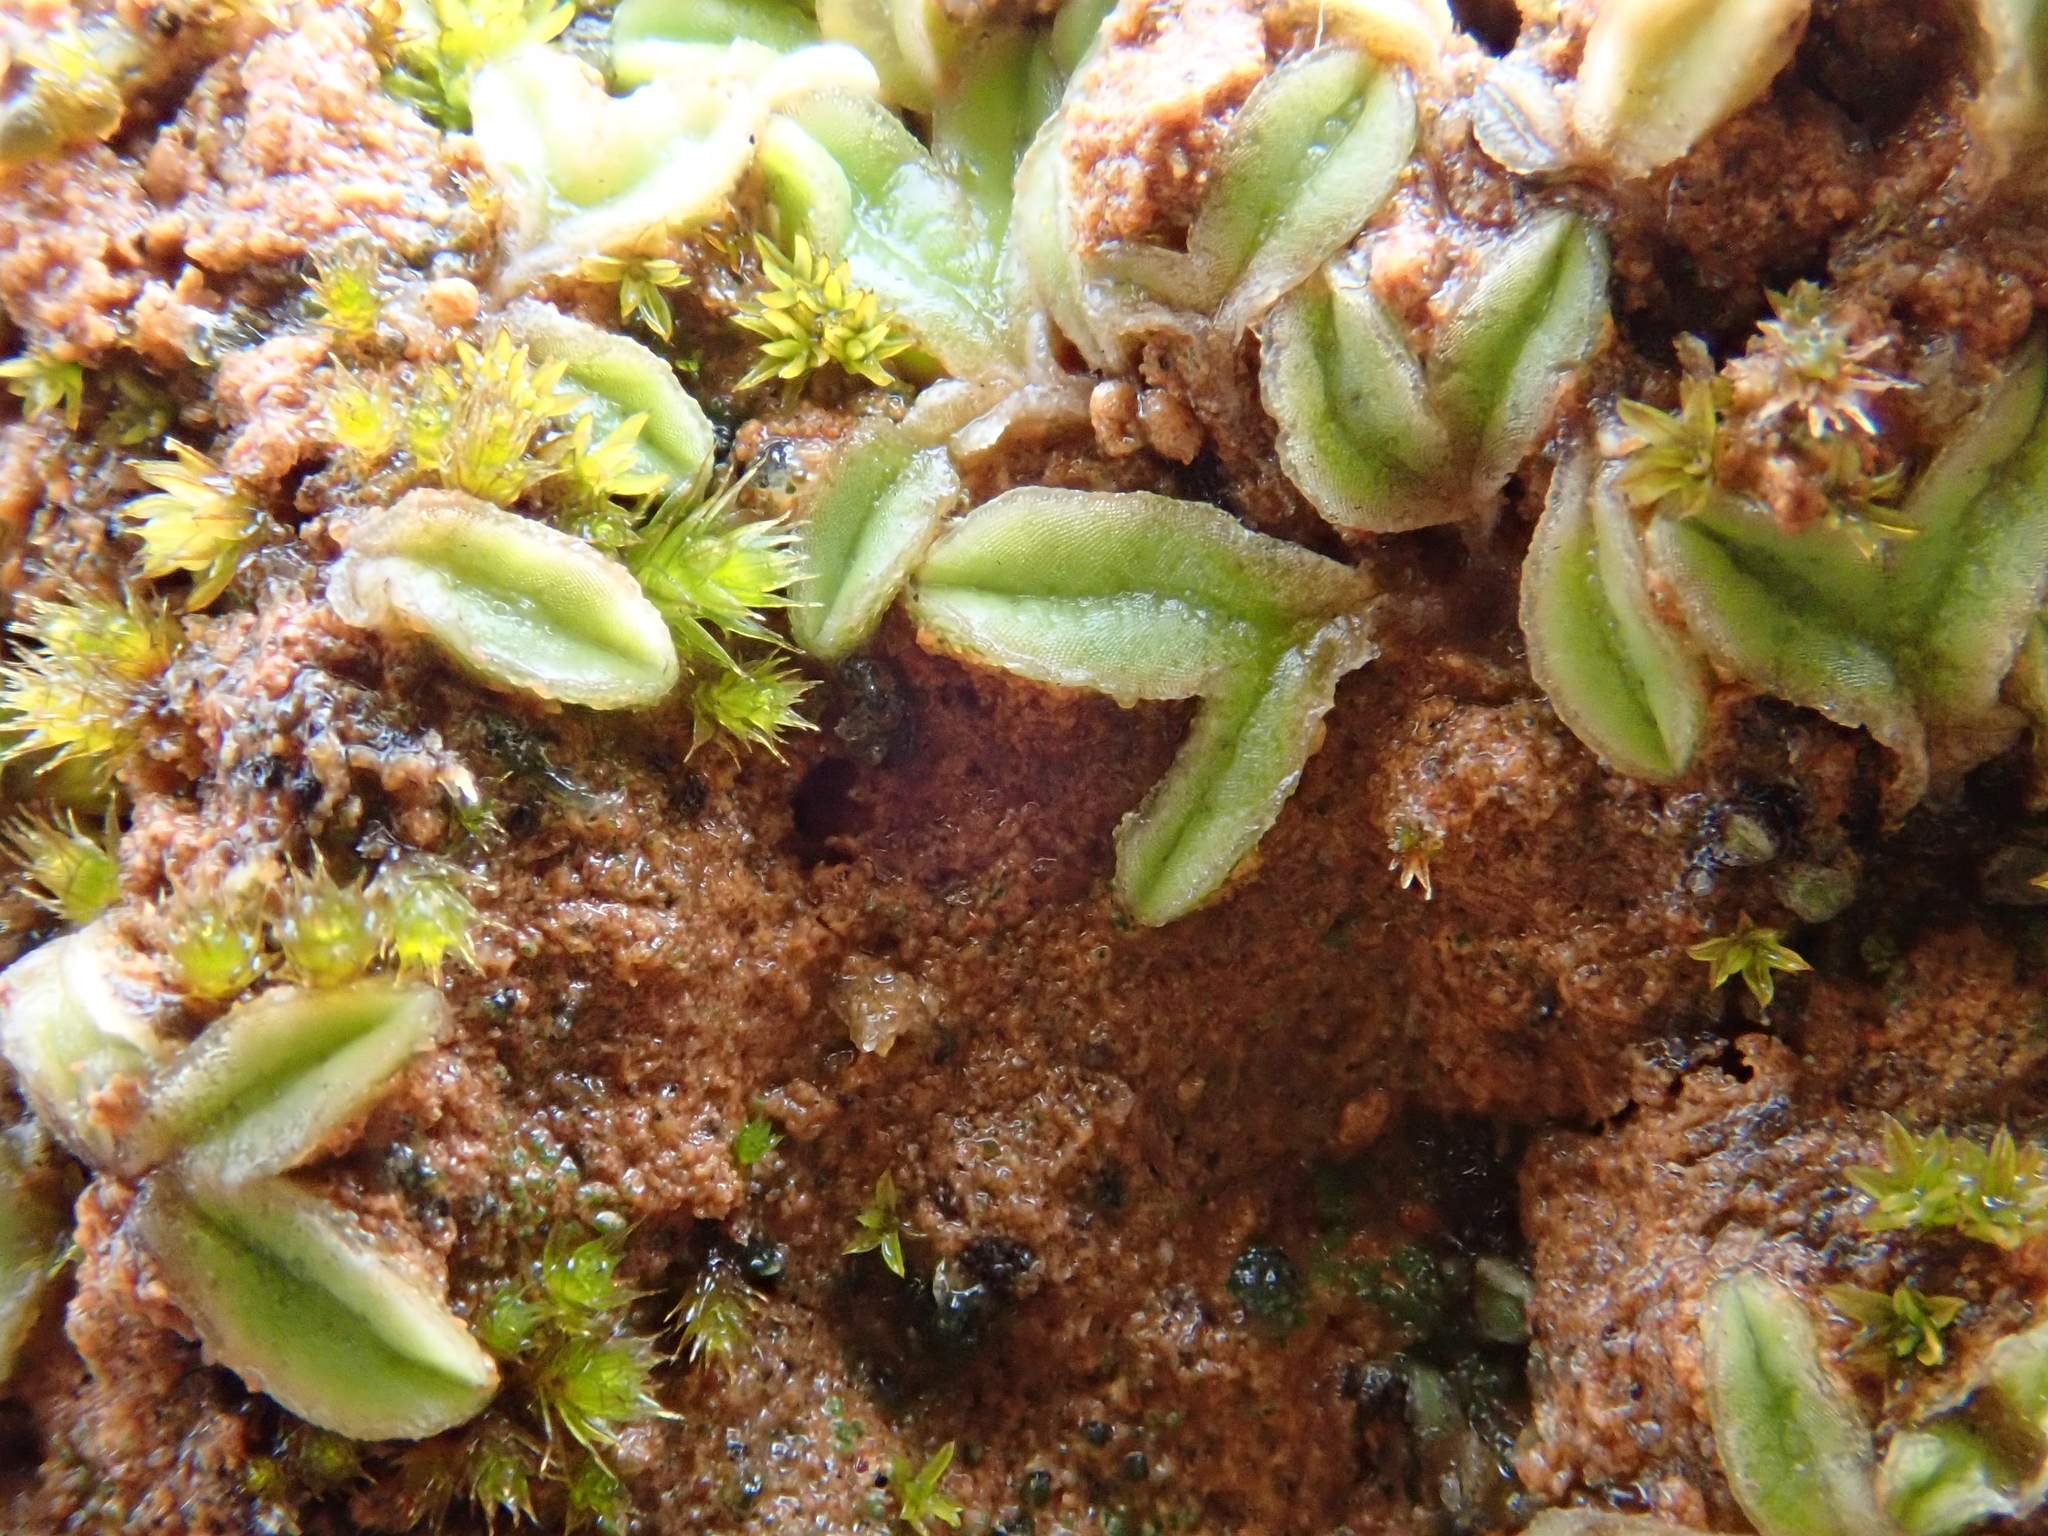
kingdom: Plantae
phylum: Marchantiophyta
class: Marchantiopsida
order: Marchantiales
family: Ricciaceae
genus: Riccia
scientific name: Riccia sorocarpa
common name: Common crystalwort
